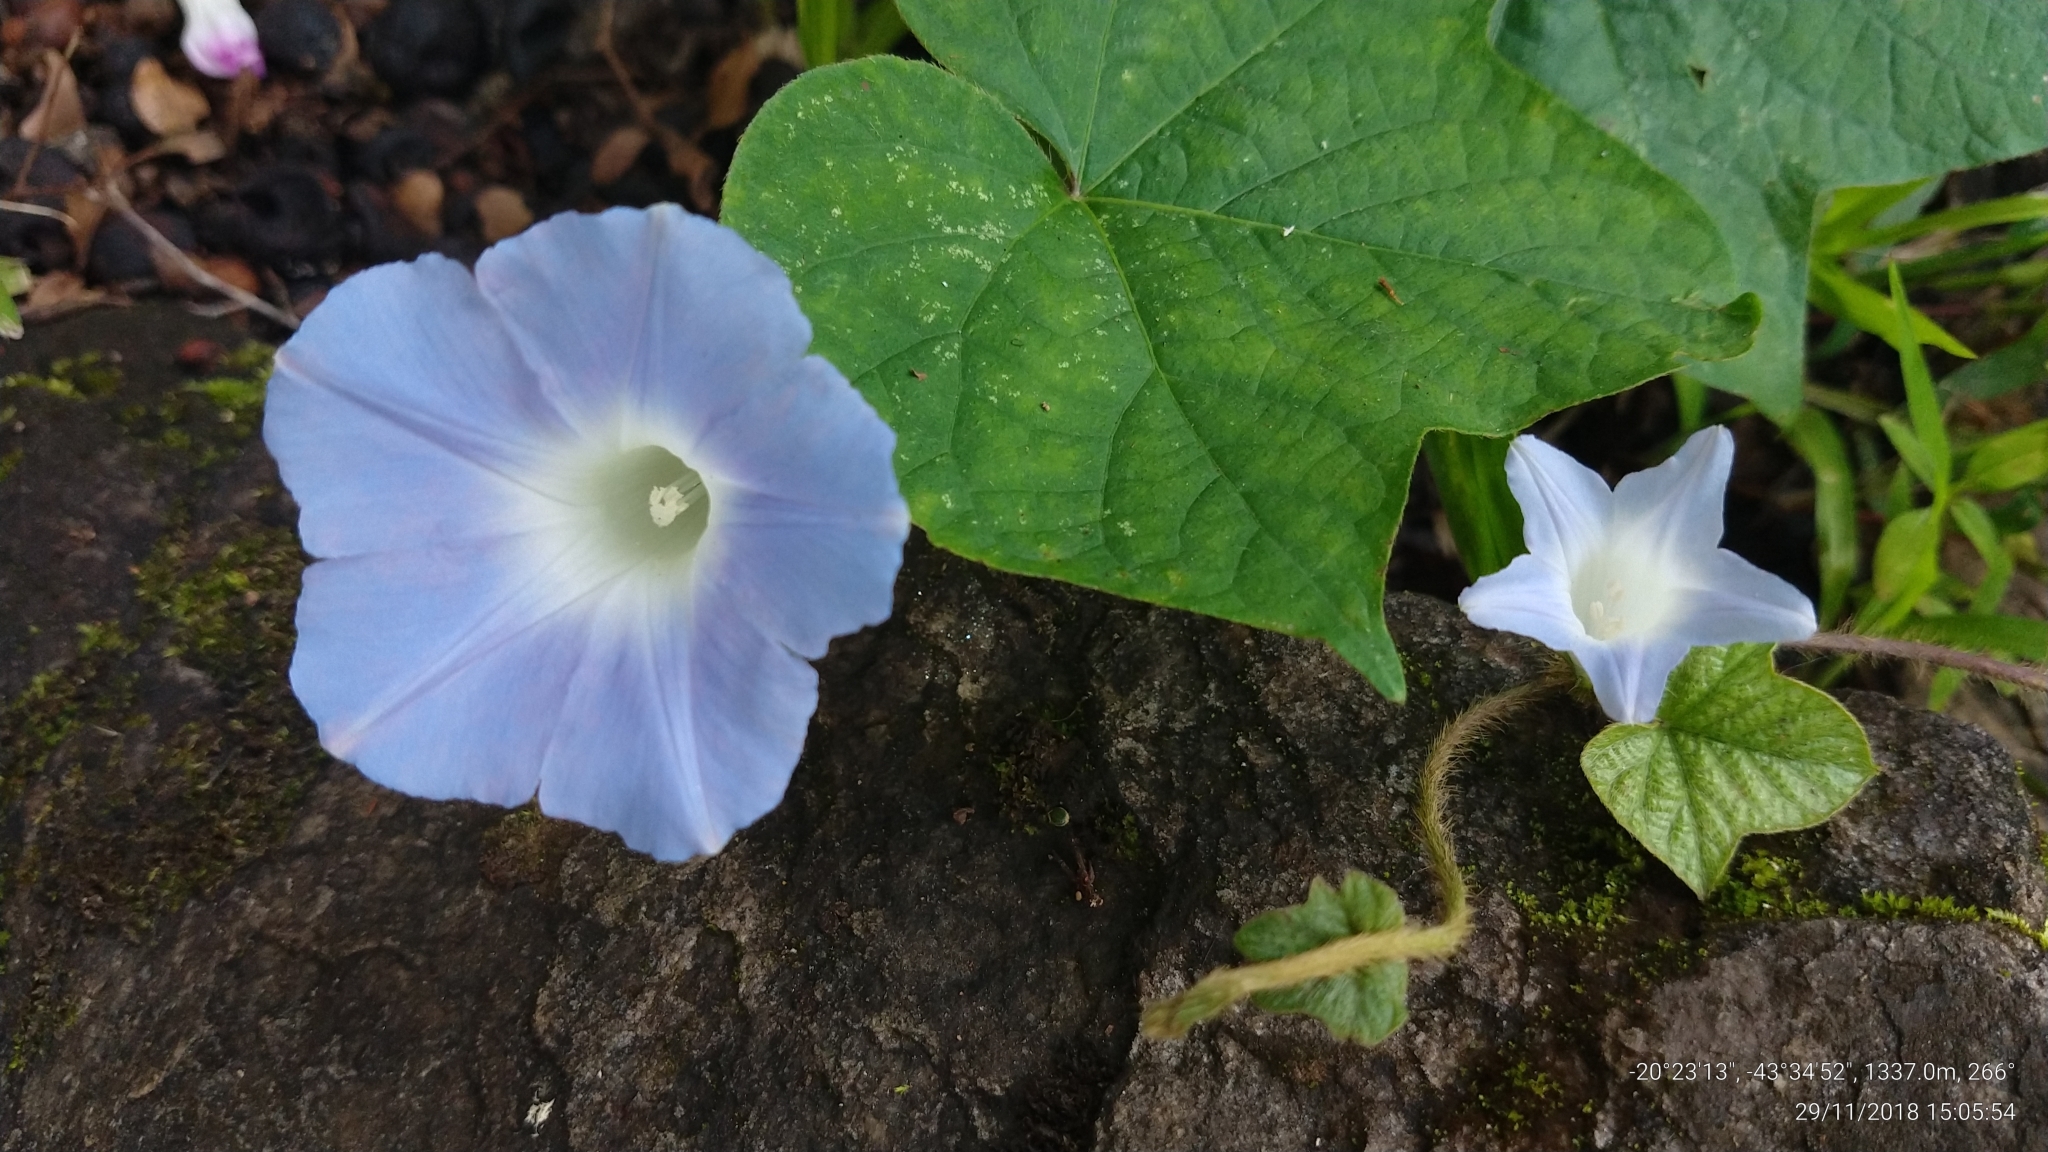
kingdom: Plantae
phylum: Tracheophyta
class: Magnoliopsida
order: Solanales
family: Convolvulaceae
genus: Ipomoea
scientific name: Ipomoea nil
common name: Japanese morning-glory
